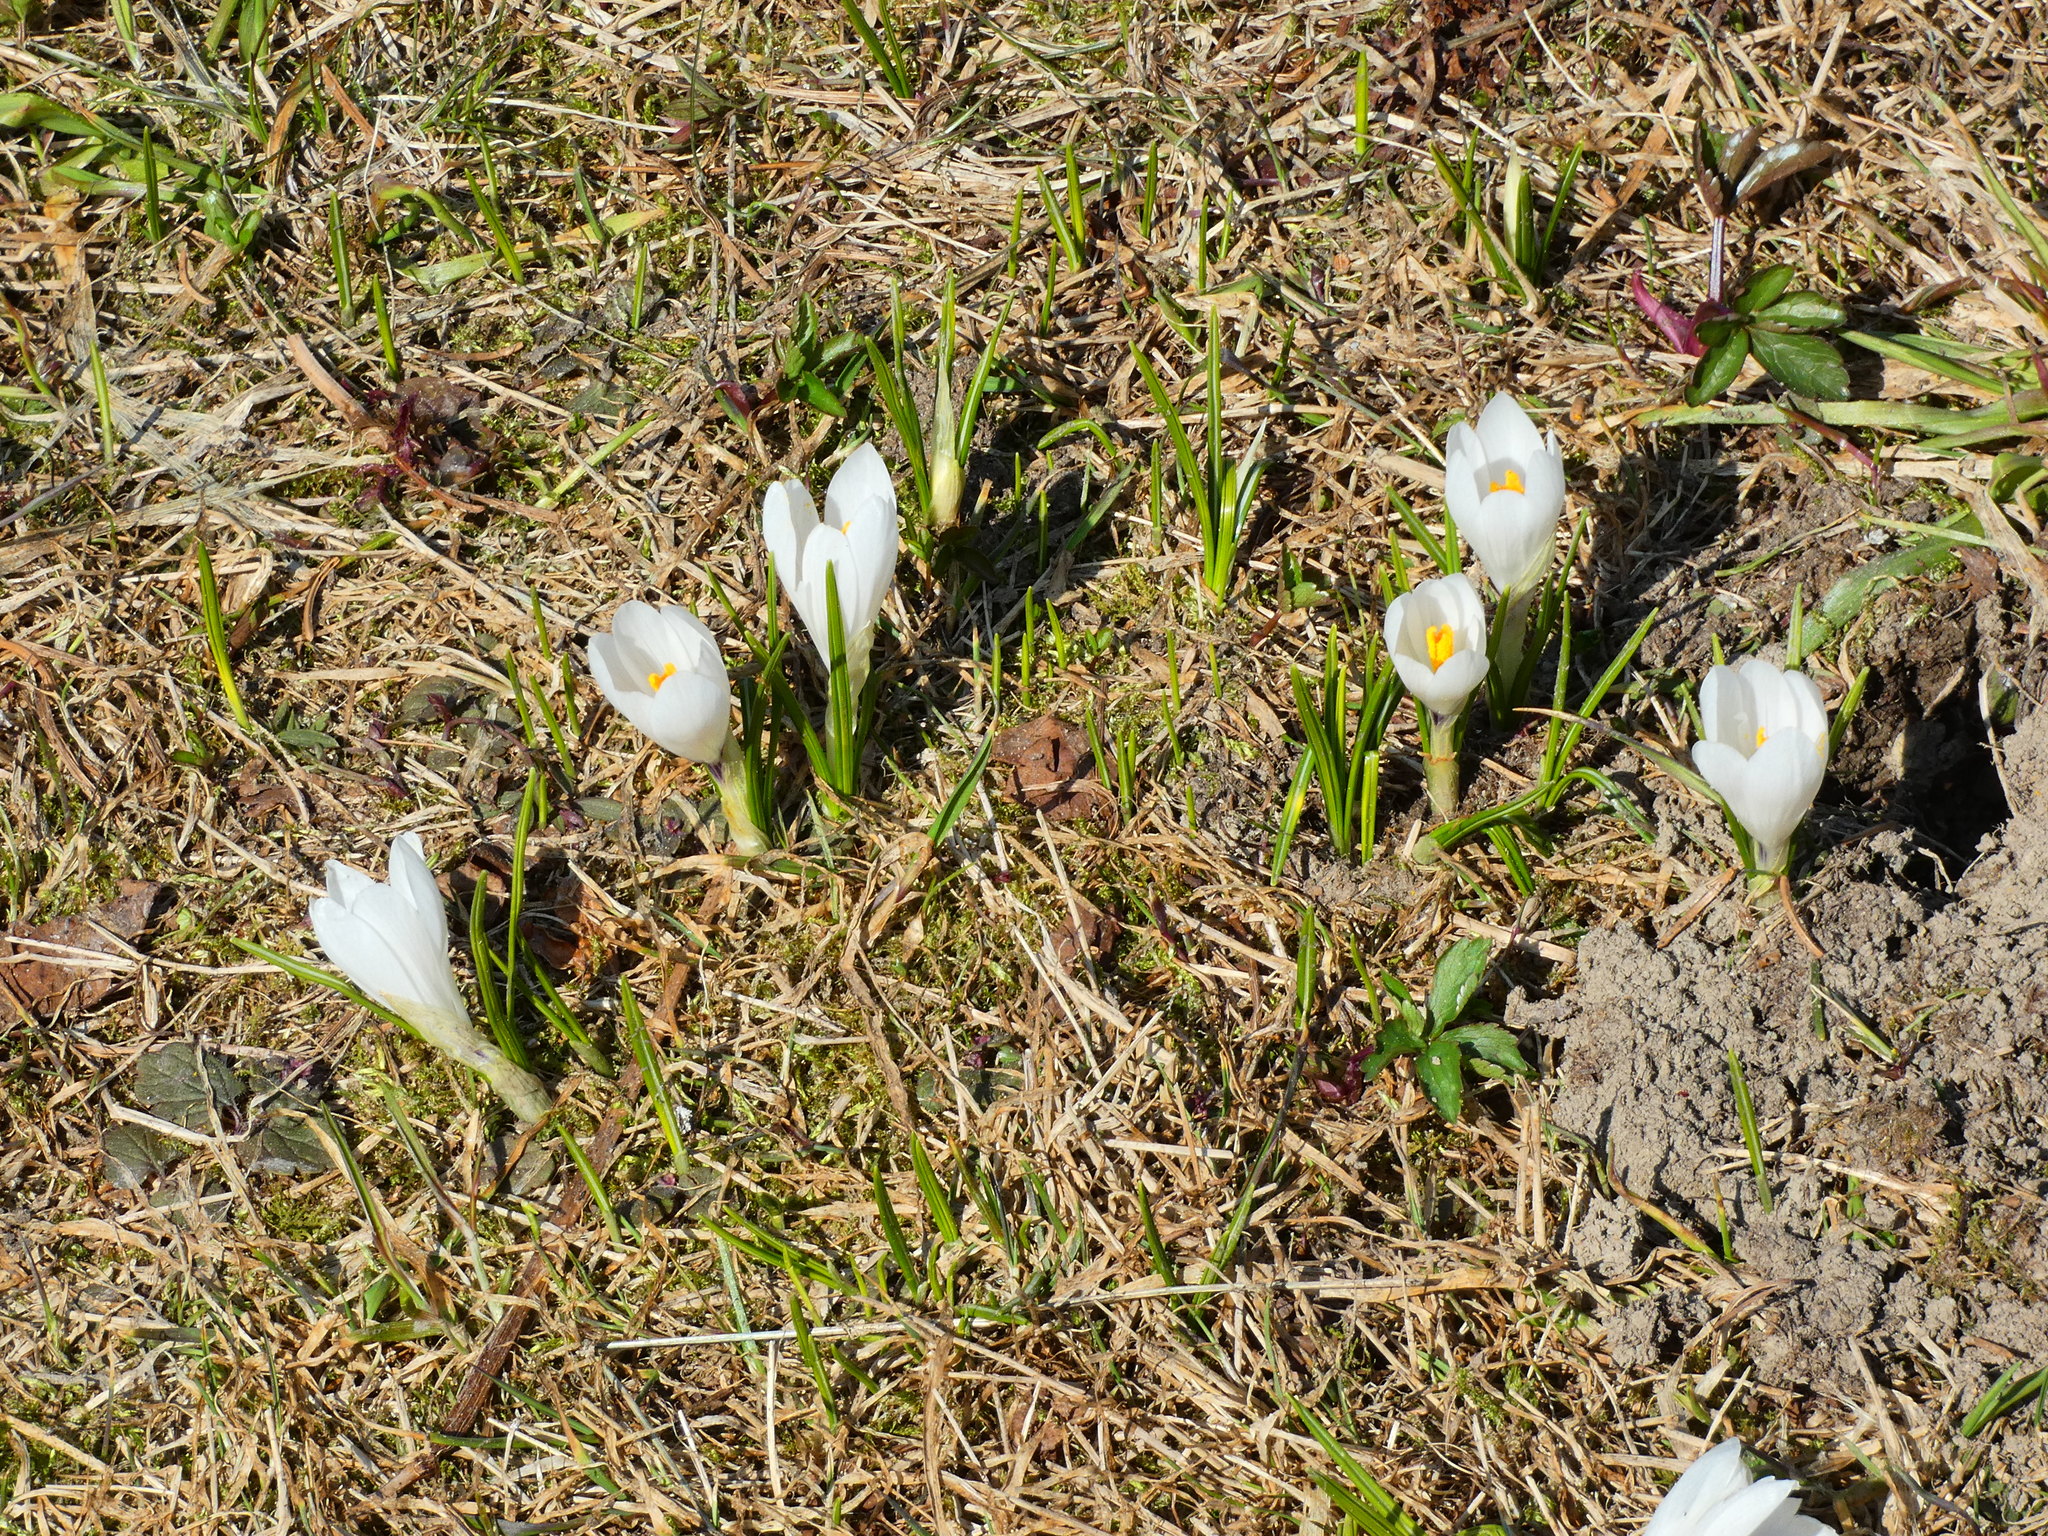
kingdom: Plantae
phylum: Tracheophyta
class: Liliopsida
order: Asparagales
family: Iridaceae
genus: Crocus
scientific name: Crocus vernus
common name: Spring crocus
